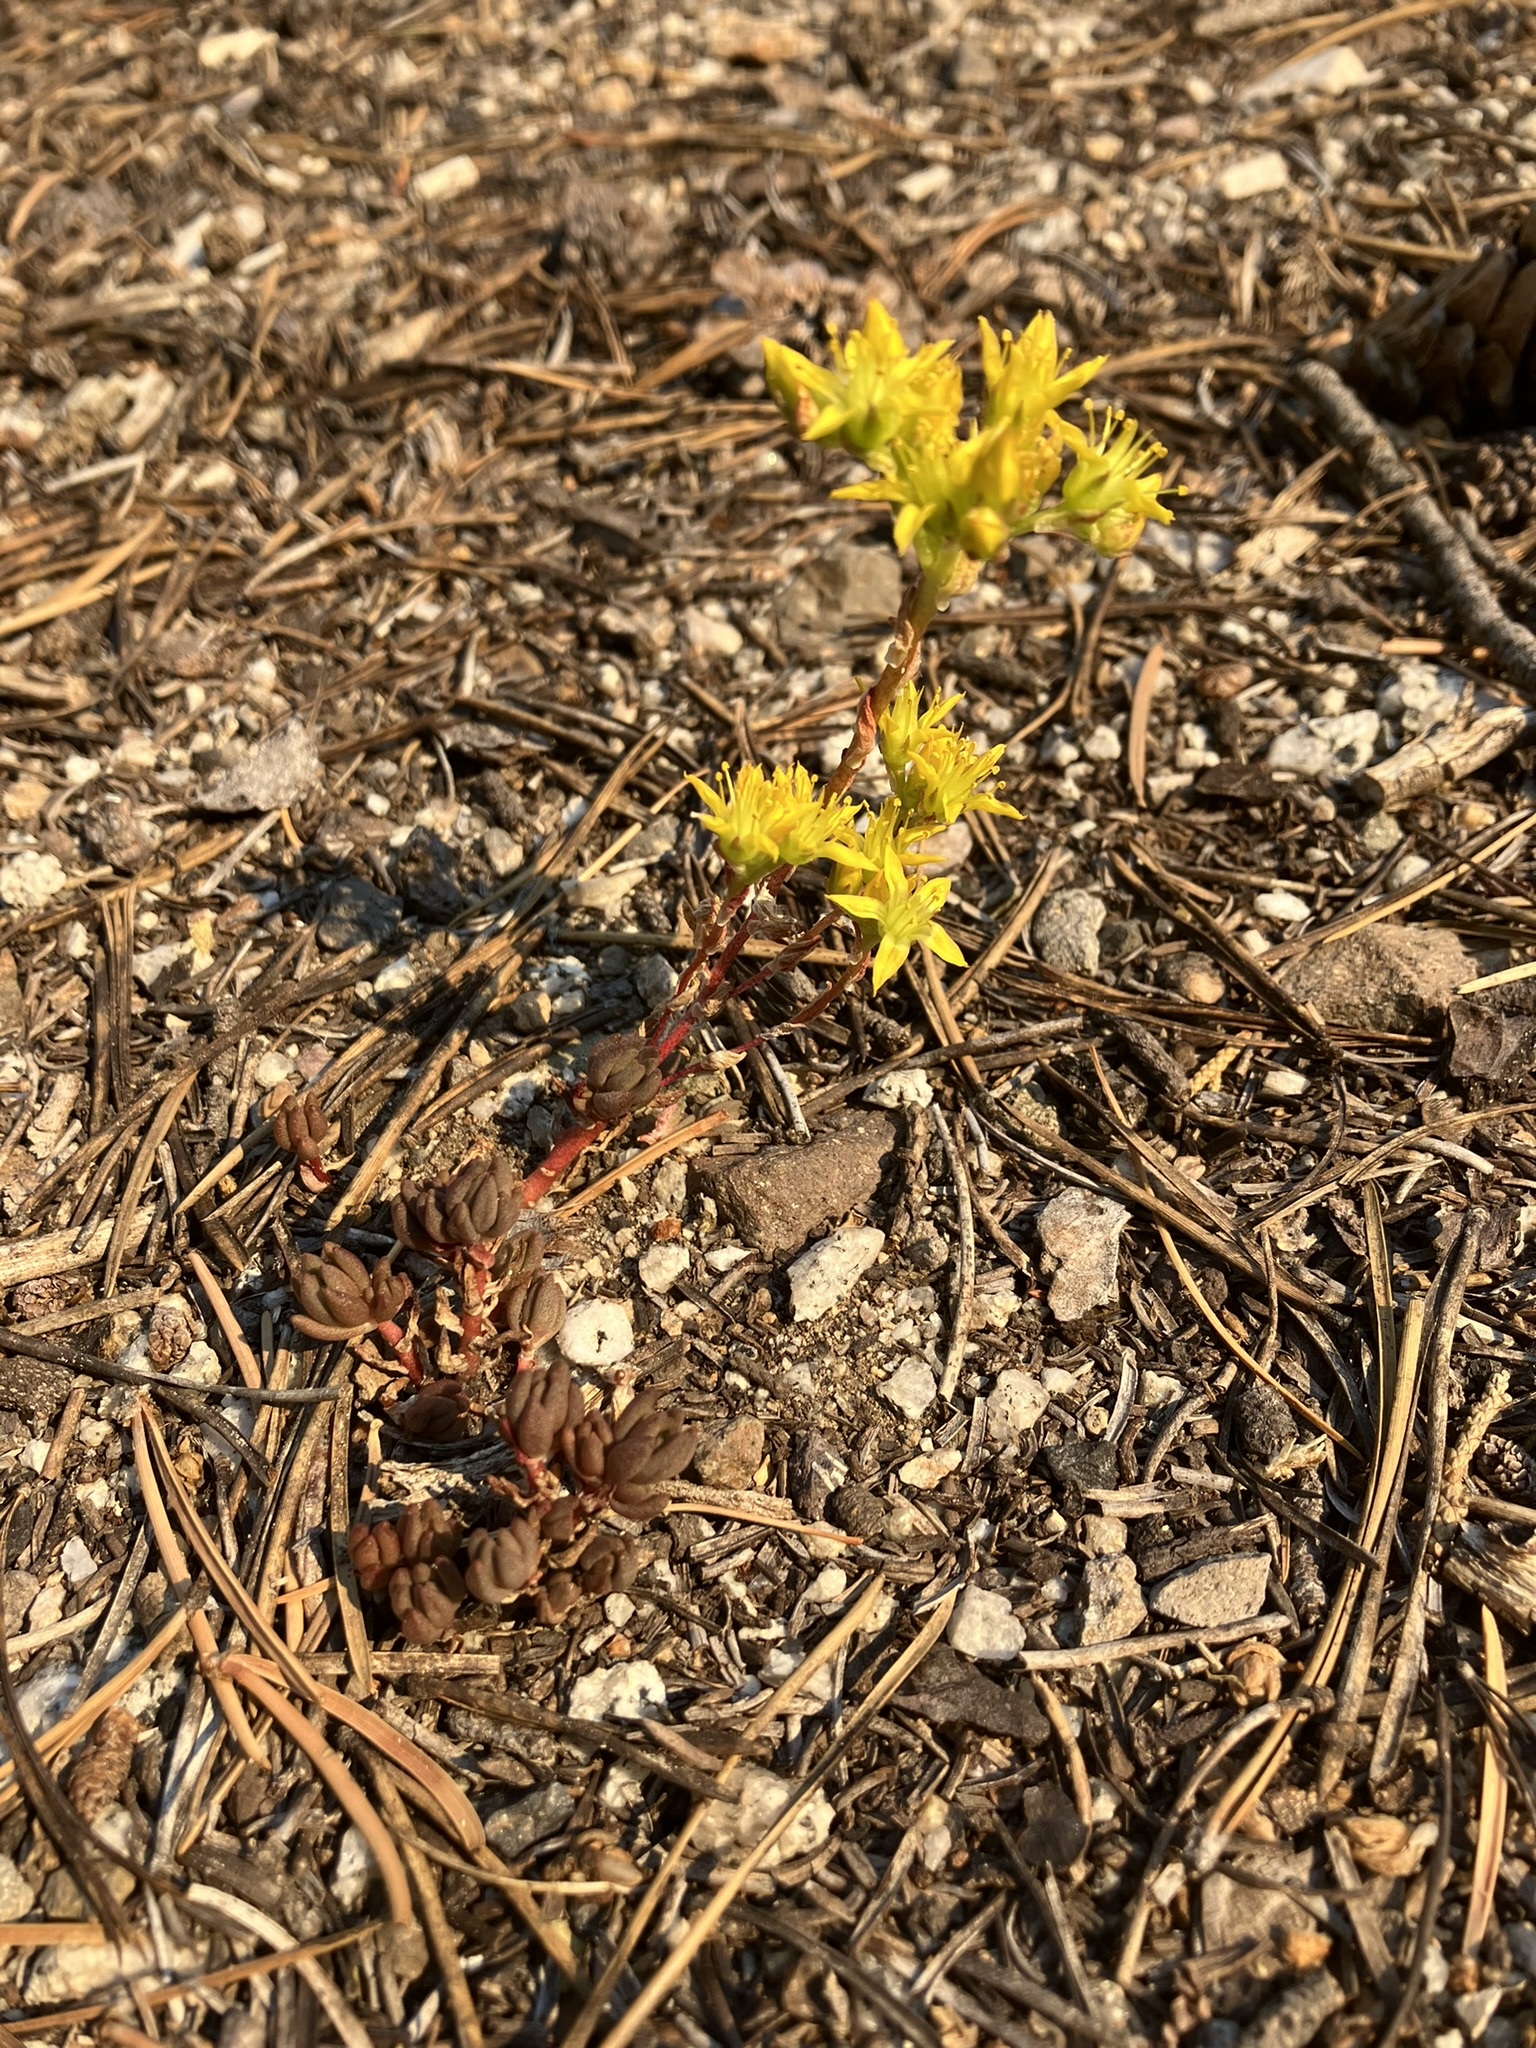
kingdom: Plantae
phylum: Tracheophyta
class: Magnoliopsida
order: Saxifragales
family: Crassulaceae
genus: Sedum
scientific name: Sedum lanceolatum
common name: Common stonecrop
